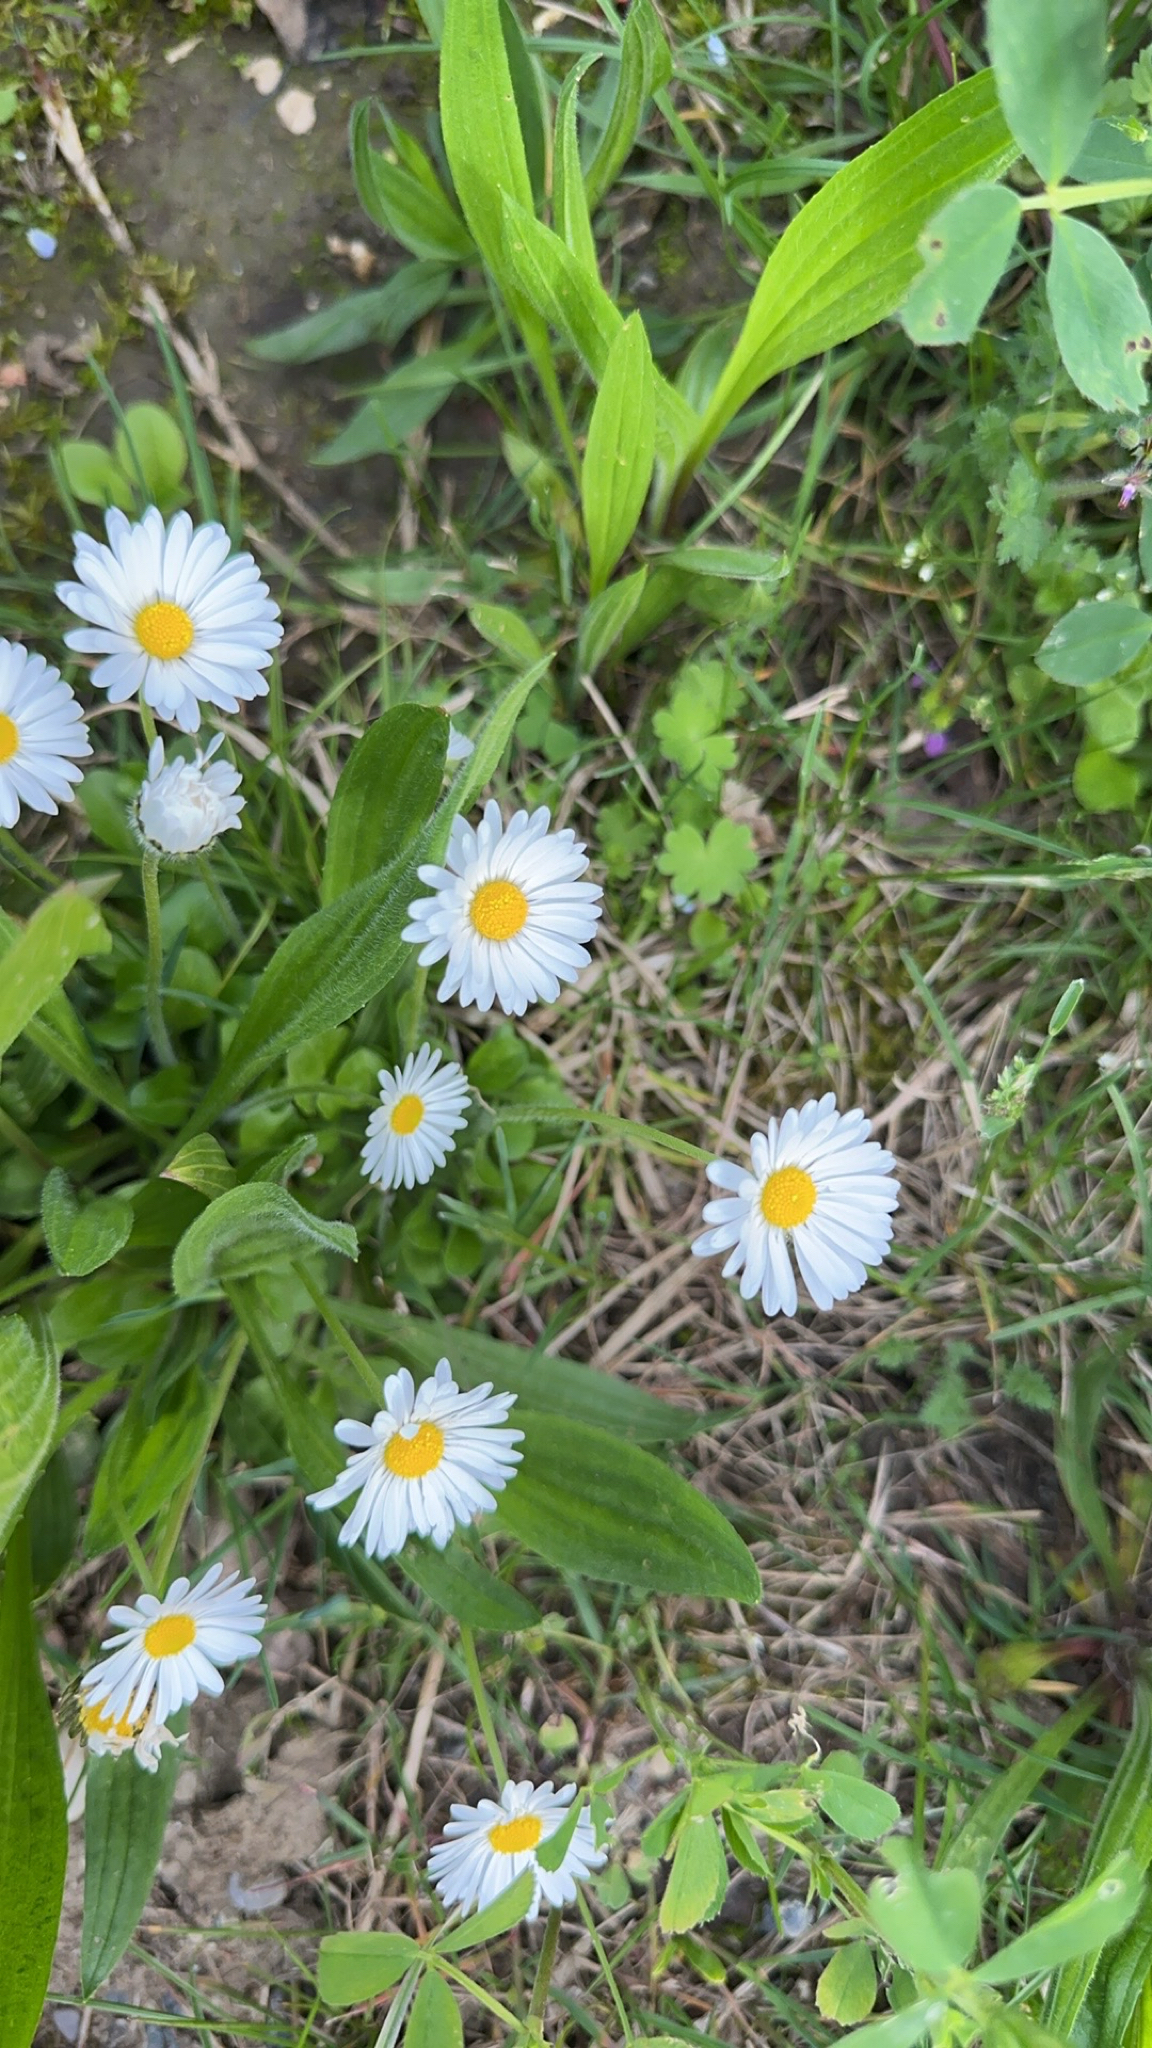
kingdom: Plantae
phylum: Tracheophyta
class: Magnoliopsida
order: Asterales
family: Asteraceae
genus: Bellis
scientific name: Bellis perennis
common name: Lawndaisy
